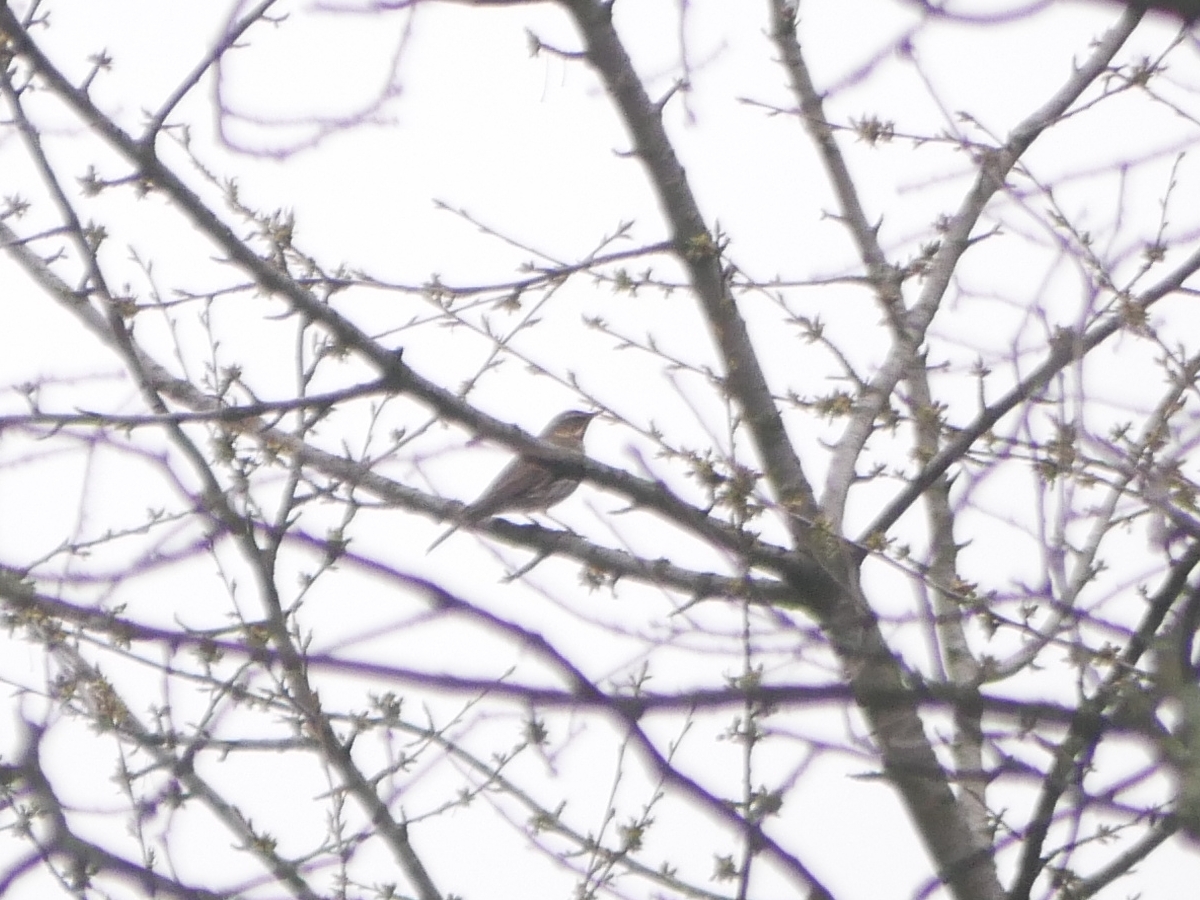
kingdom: Animalia
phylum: Chordata
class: Aves
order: Passeriformes
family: Turdidae
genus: Turdus
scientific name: Turdus iliacus
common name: Redwing
